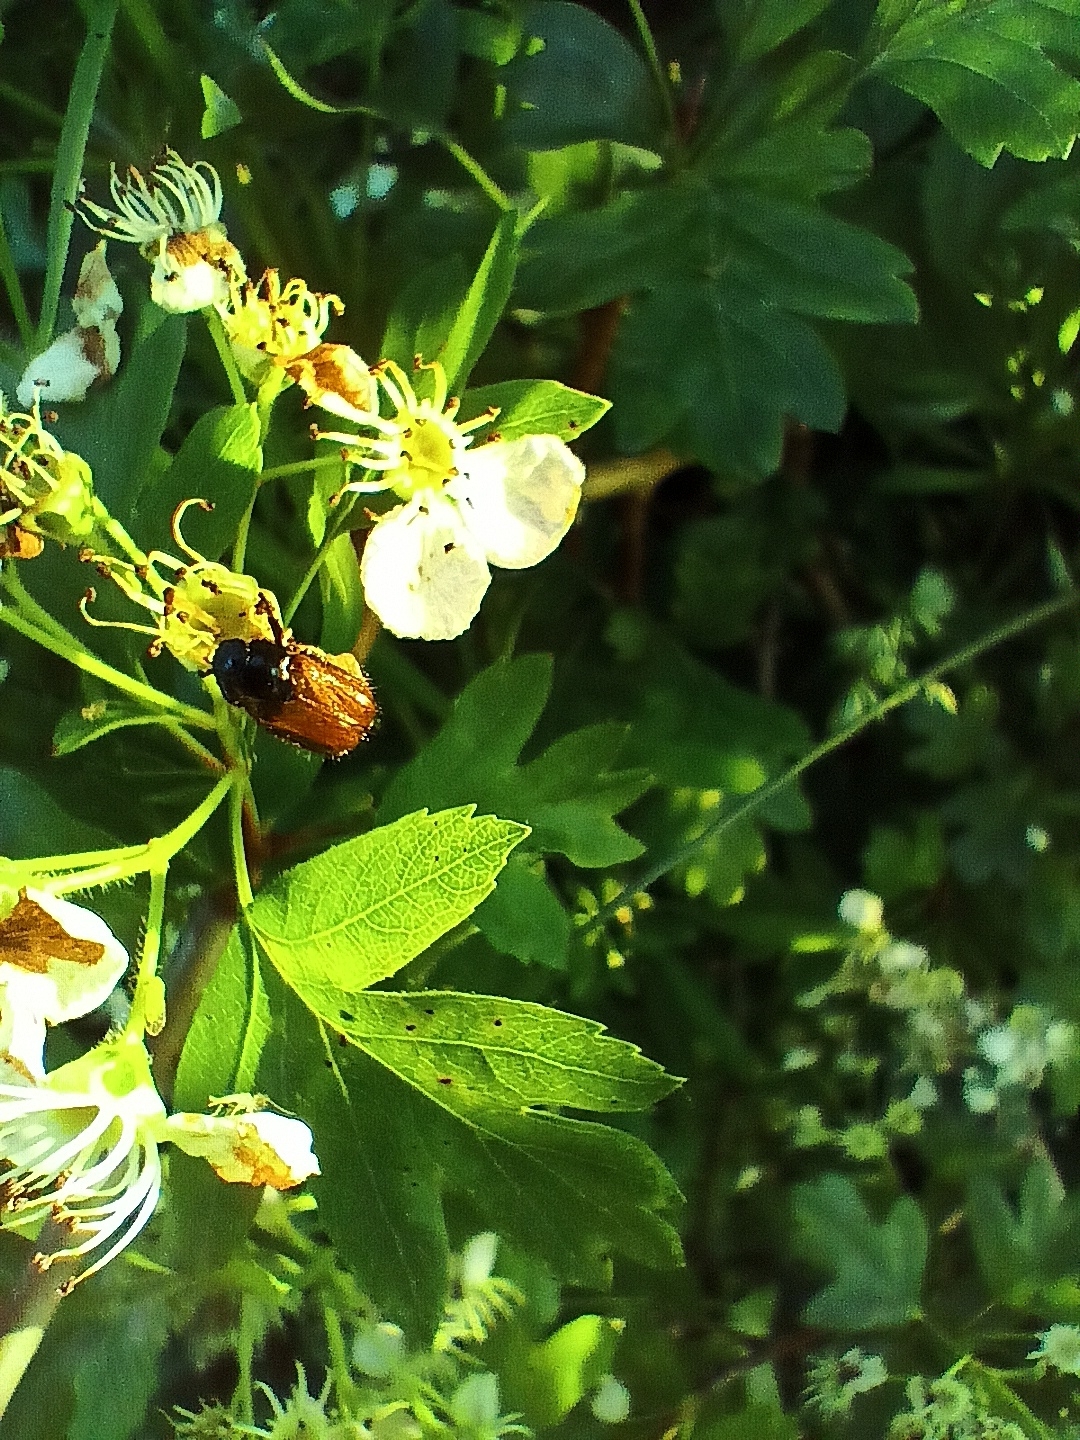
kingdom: Animalia
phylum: Arthropoda
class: Insecta
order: Coleoptera
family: Scarabaeidae
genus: Phyllopertha
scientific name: Phyllopertha horticola
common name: Garden chafer
